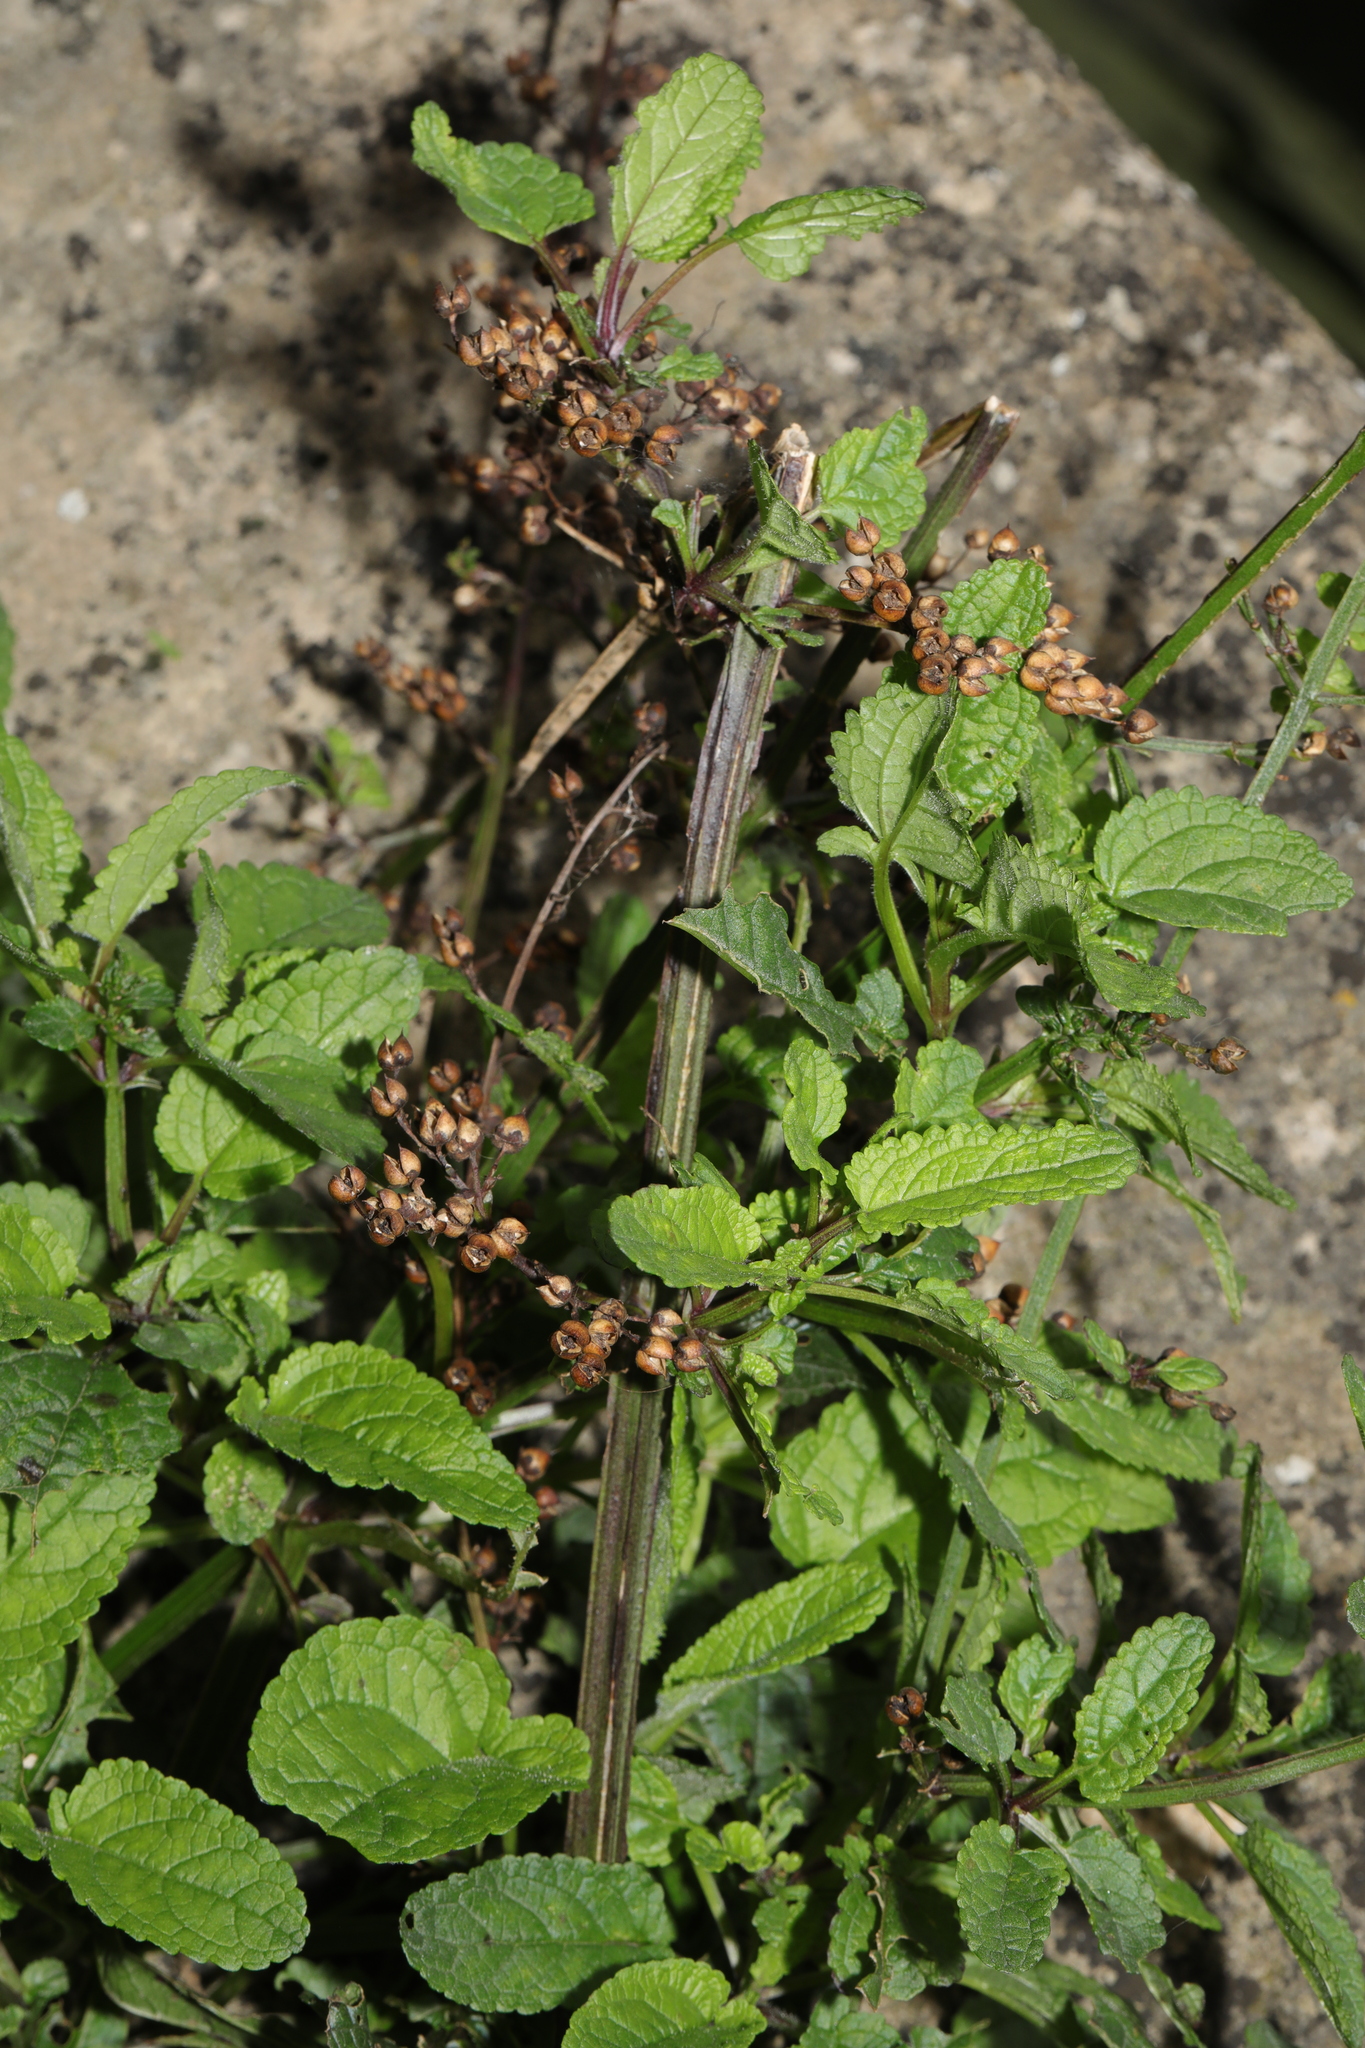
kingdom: Plantae
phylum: Tracheophyta
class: Magnoliopsida
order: Lamiales
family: Scrophulariaceae
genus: Scrophularia
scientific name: Scrophularia auriculata
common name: Water betony
